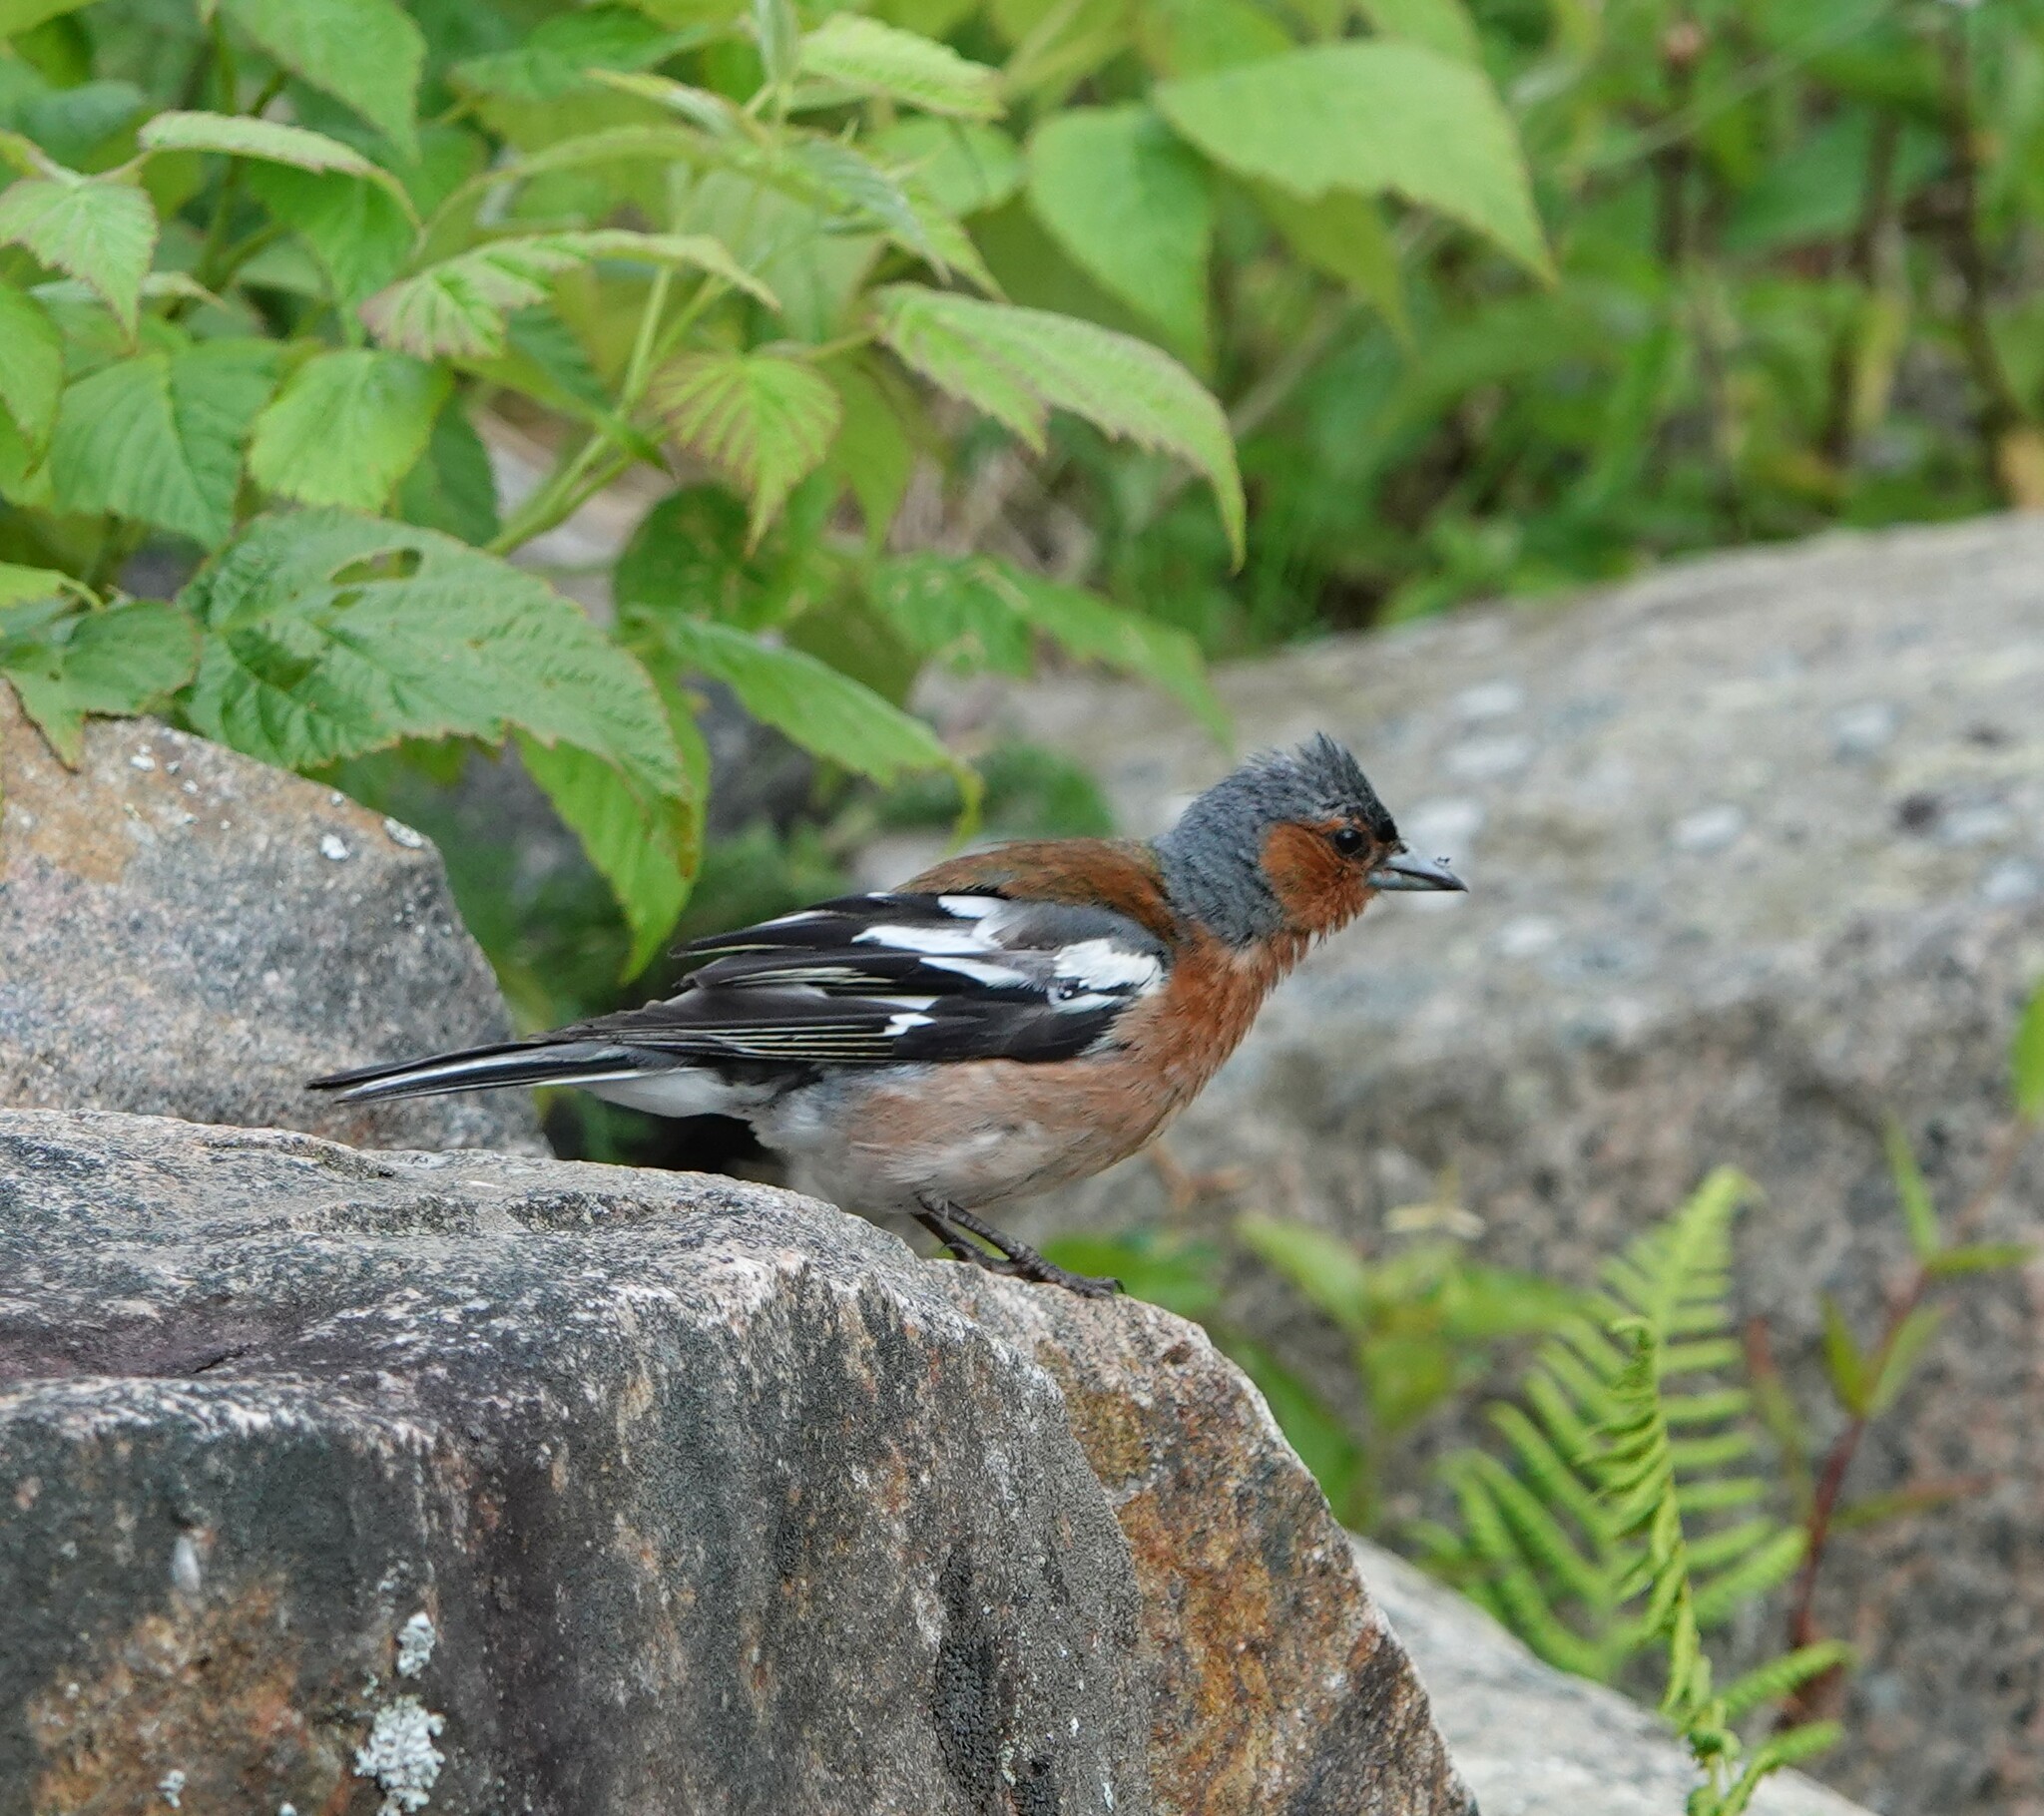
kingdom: Animalia
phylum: Chordata
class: Aves
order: Passeriformes
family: Fringillidae
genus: Fringilla
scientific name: Fringilla coelebs
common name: Common chaffinch
